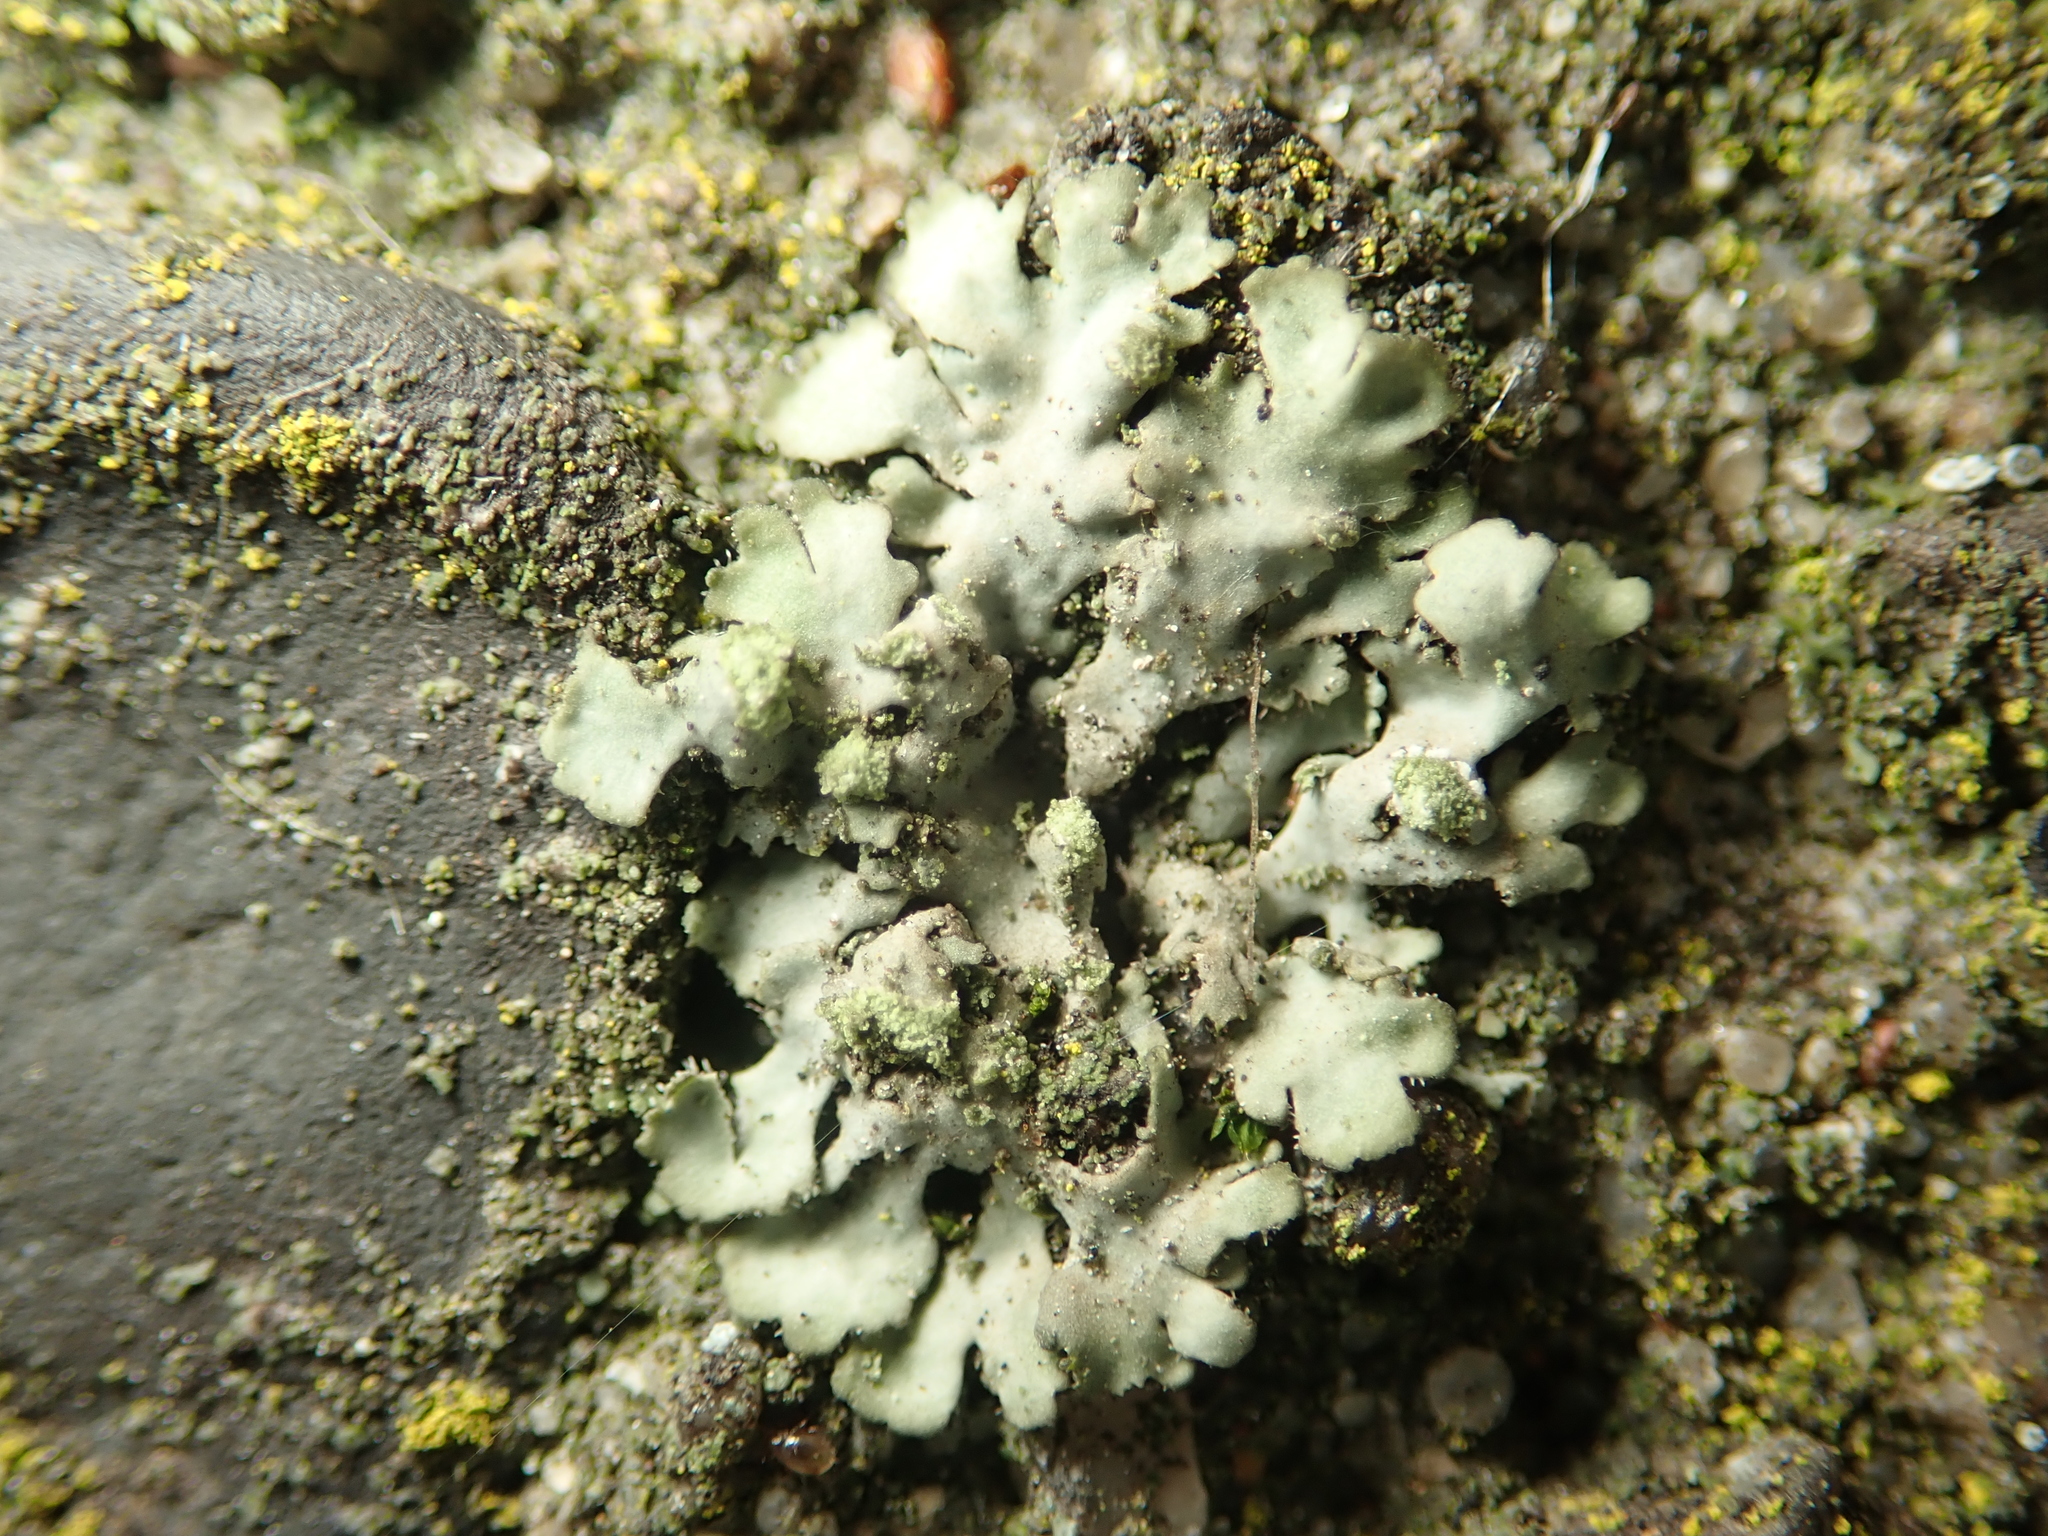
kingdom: Fungi
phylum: Ascomycota
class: Lecanoromycetes
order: Caliciales
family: Physciaceae
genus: Phaeophyscia
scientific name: Phaeophyscia orbicularis
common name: Mealy shadow lichen
